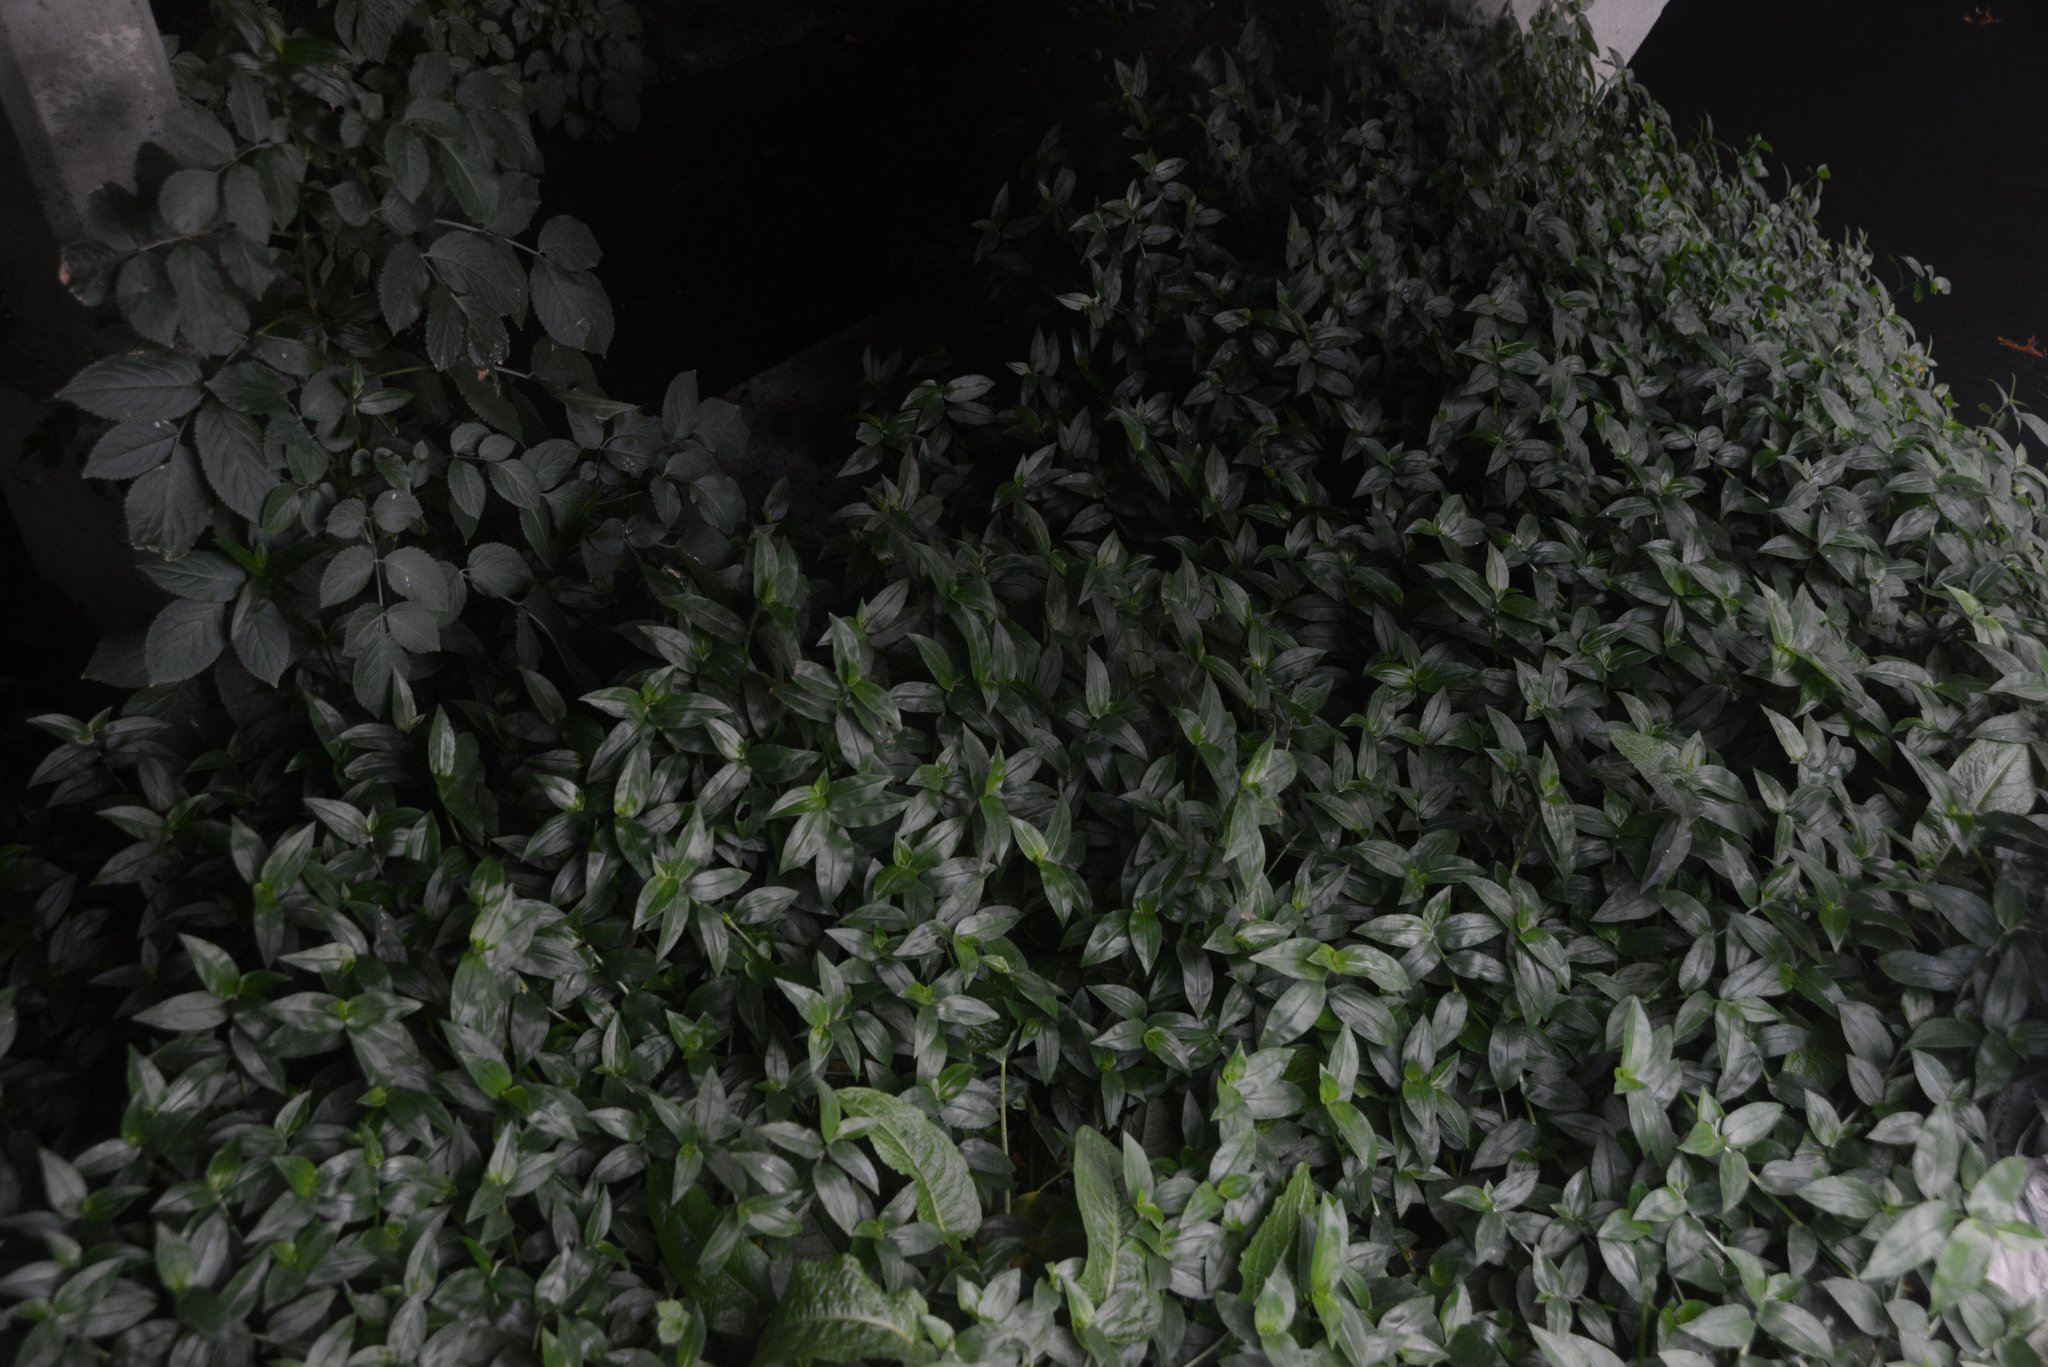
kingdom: Plantae
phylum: Tracheophyta
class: Liliopsida
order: Commelinales
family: Commelinaceae
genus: Tradescantia
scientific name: Tradescantia fluminensis
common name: Wandering-jew
